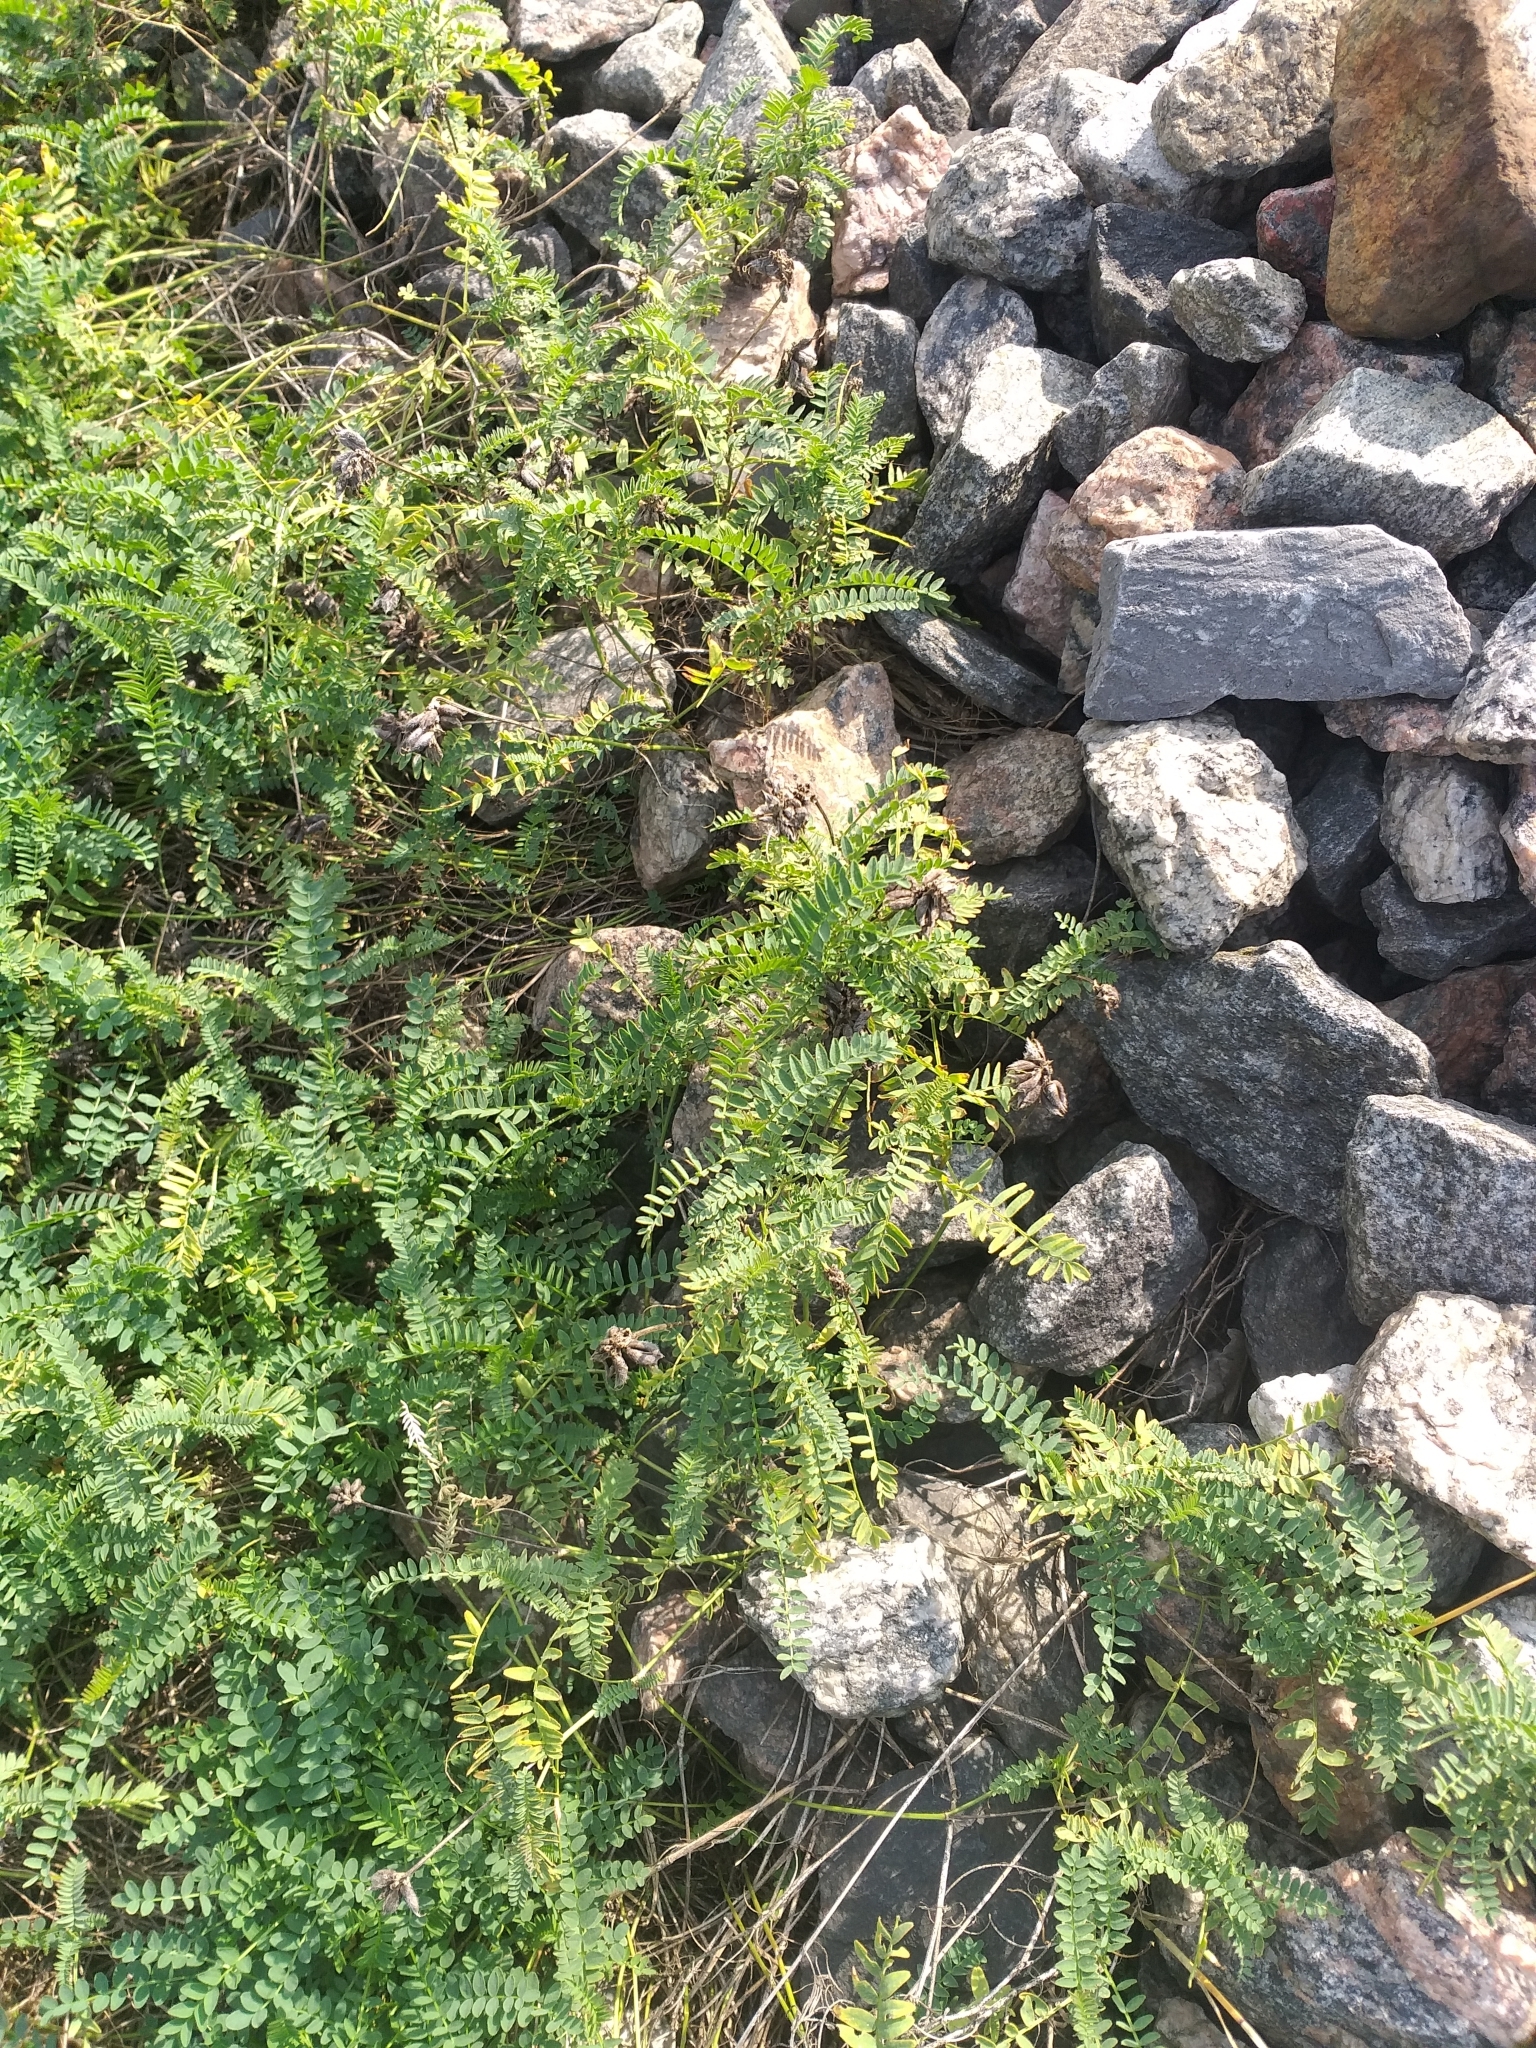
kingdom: Plantae
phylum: Tracheophyta
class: Magnoliopsida
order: Fabales
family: Fabaceae
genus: Astragalus
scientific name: Astragalus danicus
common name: Purple milk-vetch
